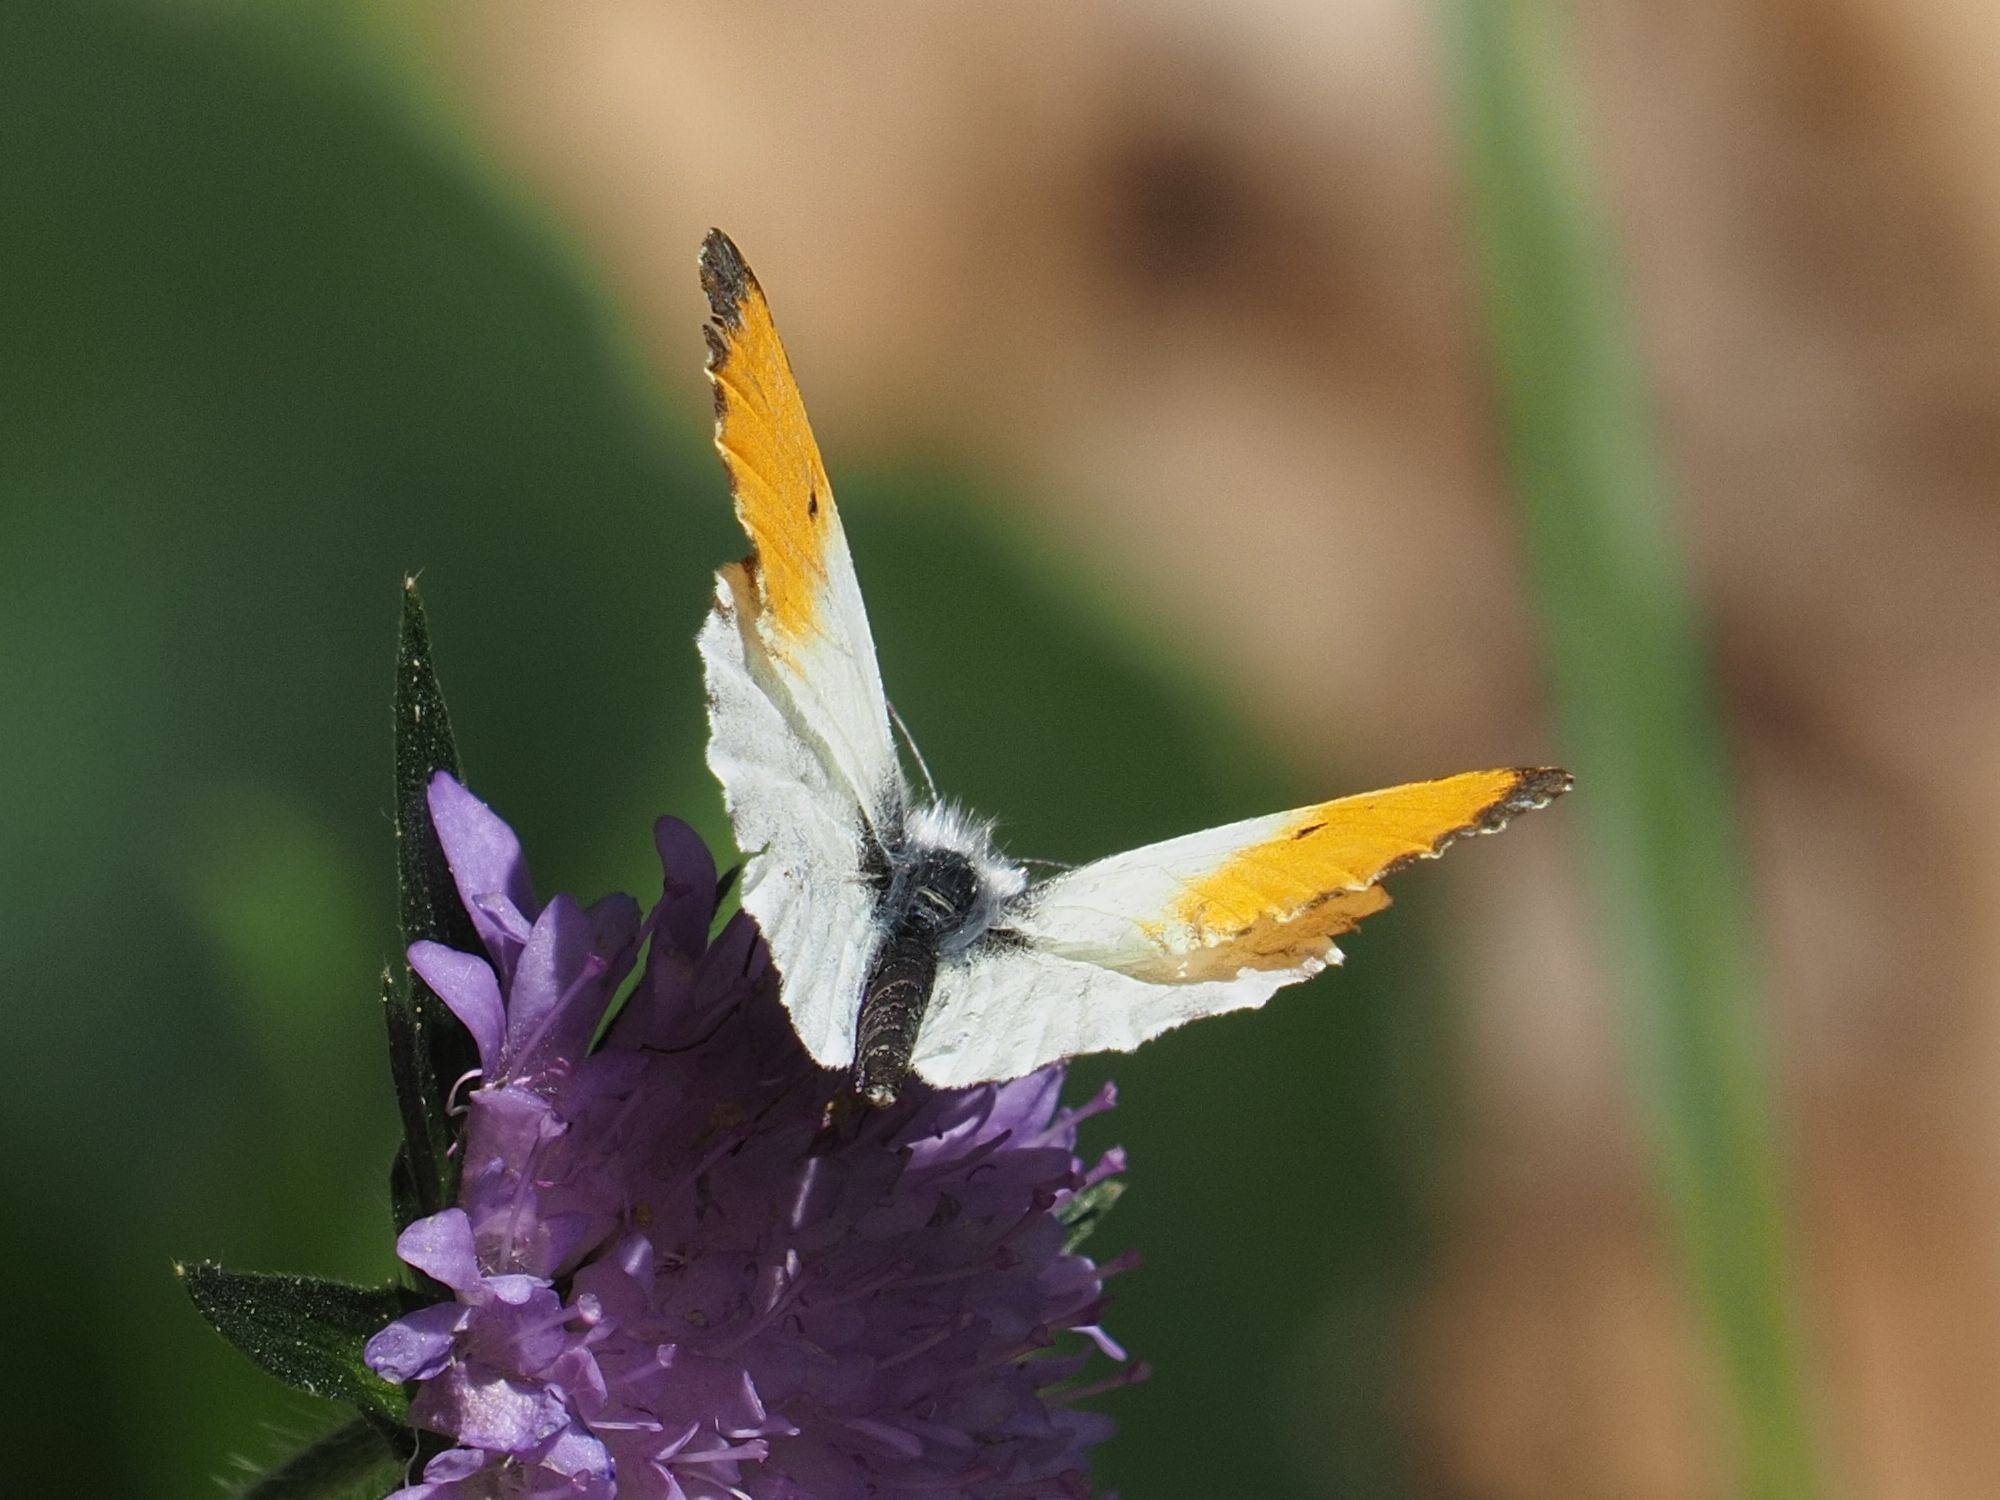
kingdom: Animalia
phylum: Arthropoda
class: Insecta
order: Lepidoptera
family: Pieridae
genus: Anthocharis
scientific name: Anthocharis cardamines
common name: Orange-tip
